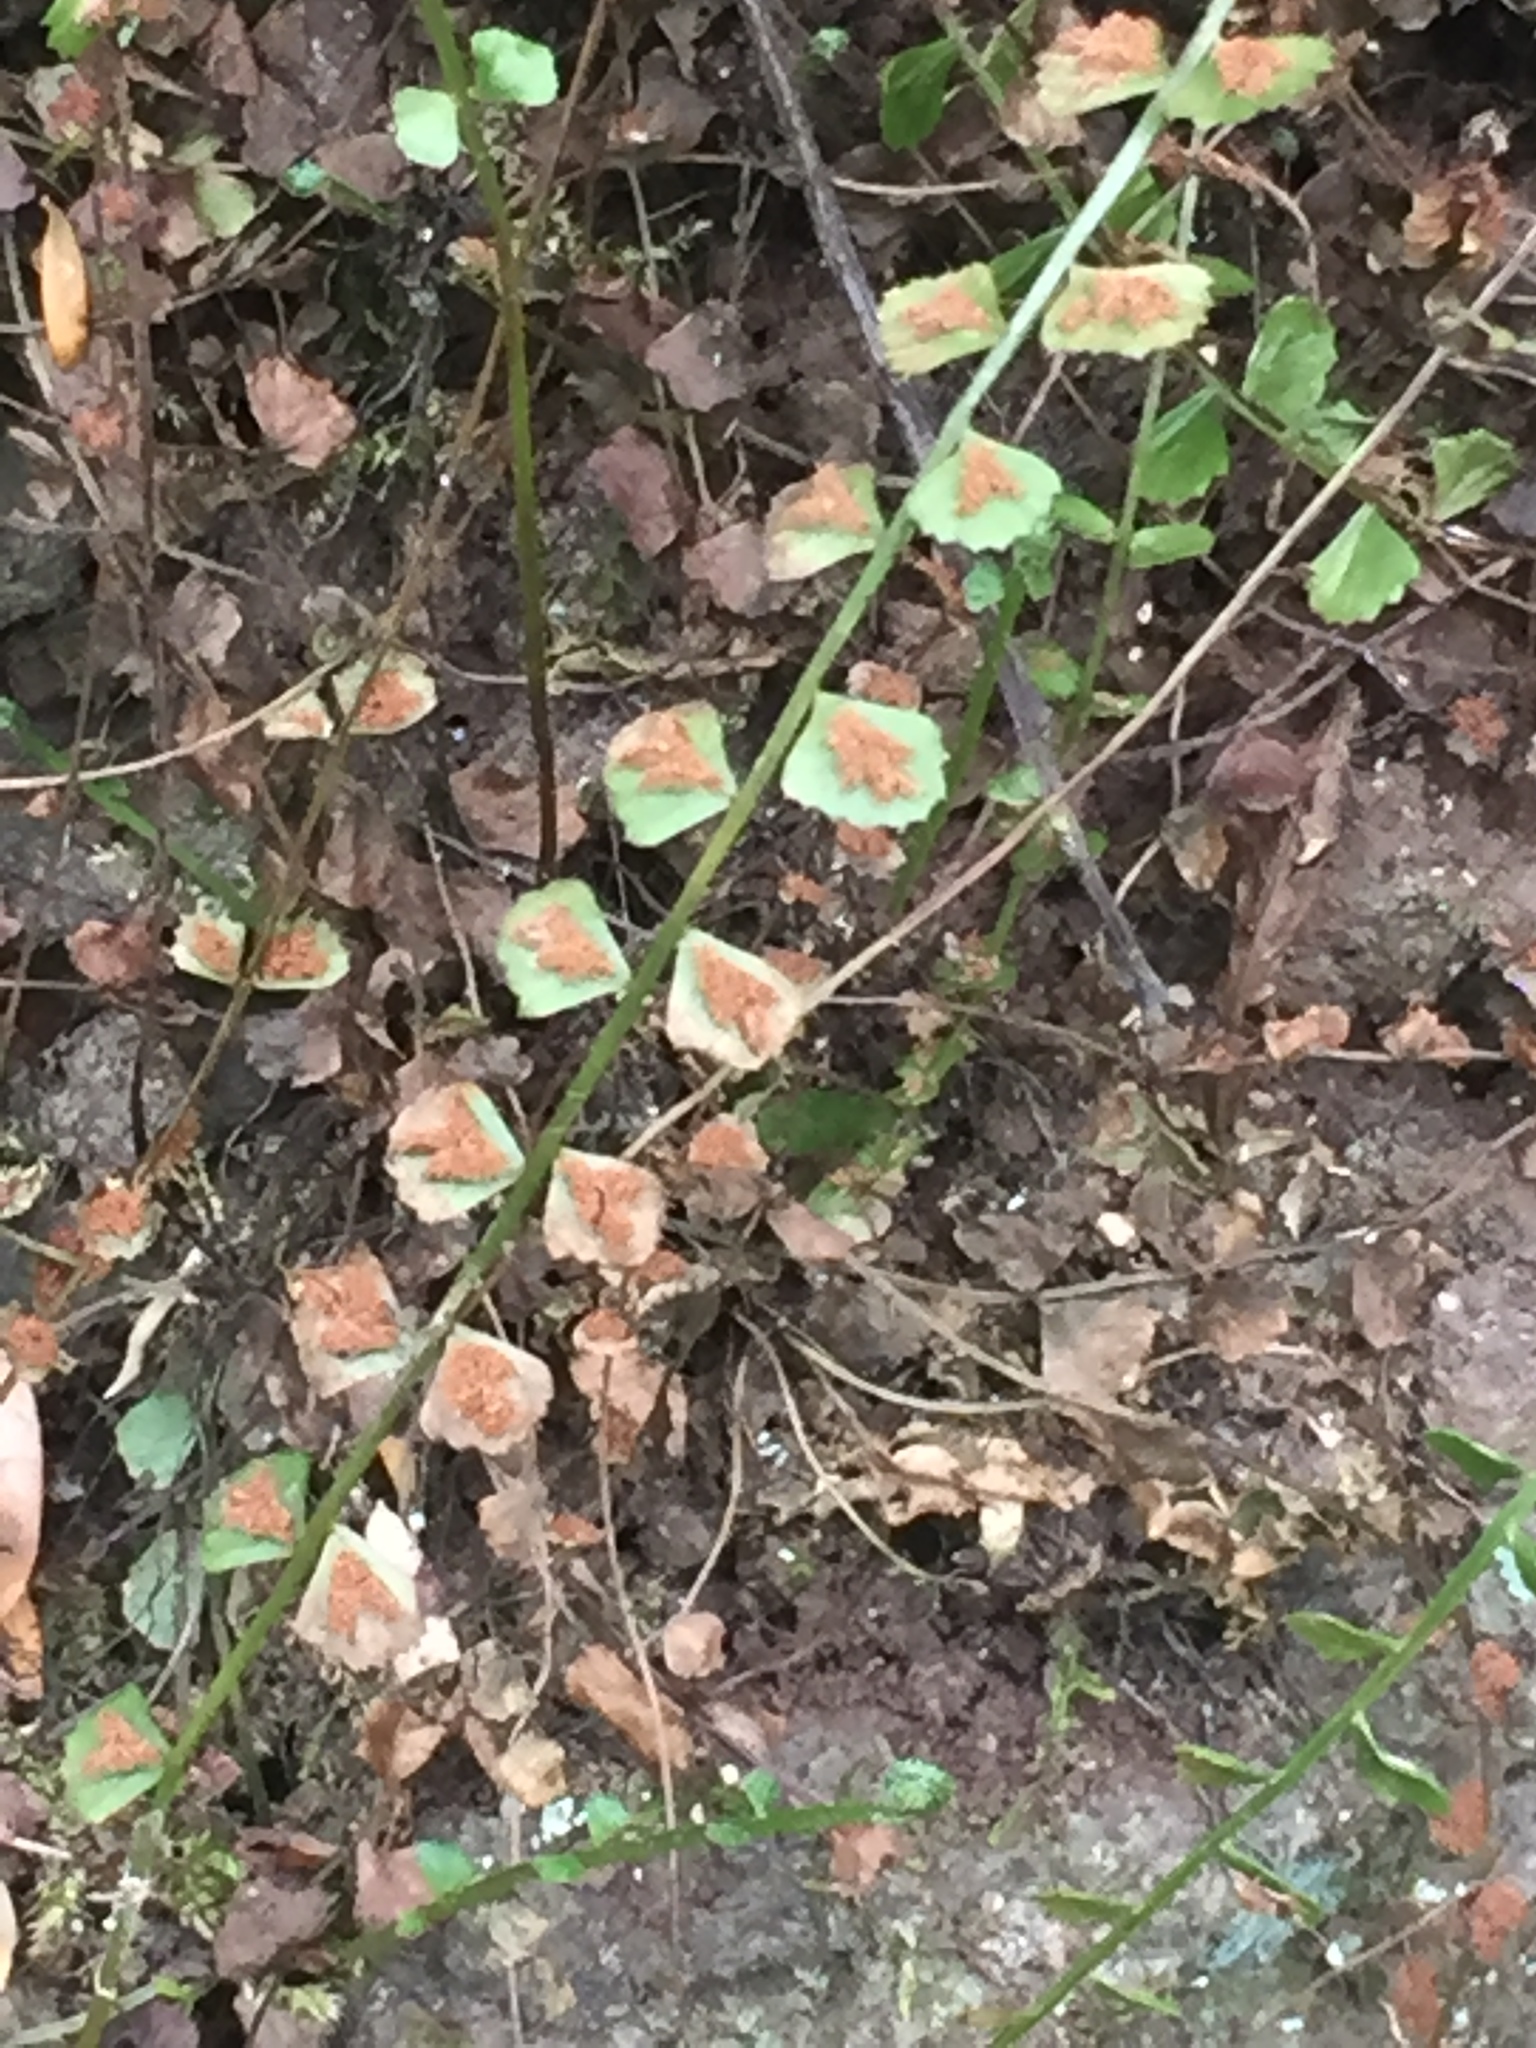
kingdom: Plantae
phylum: Tracheophyta
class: Polypodiopsida
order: Polypodiales
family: Aspleniaceae
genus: Asplenium
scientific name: Asplenium flabellifolium
